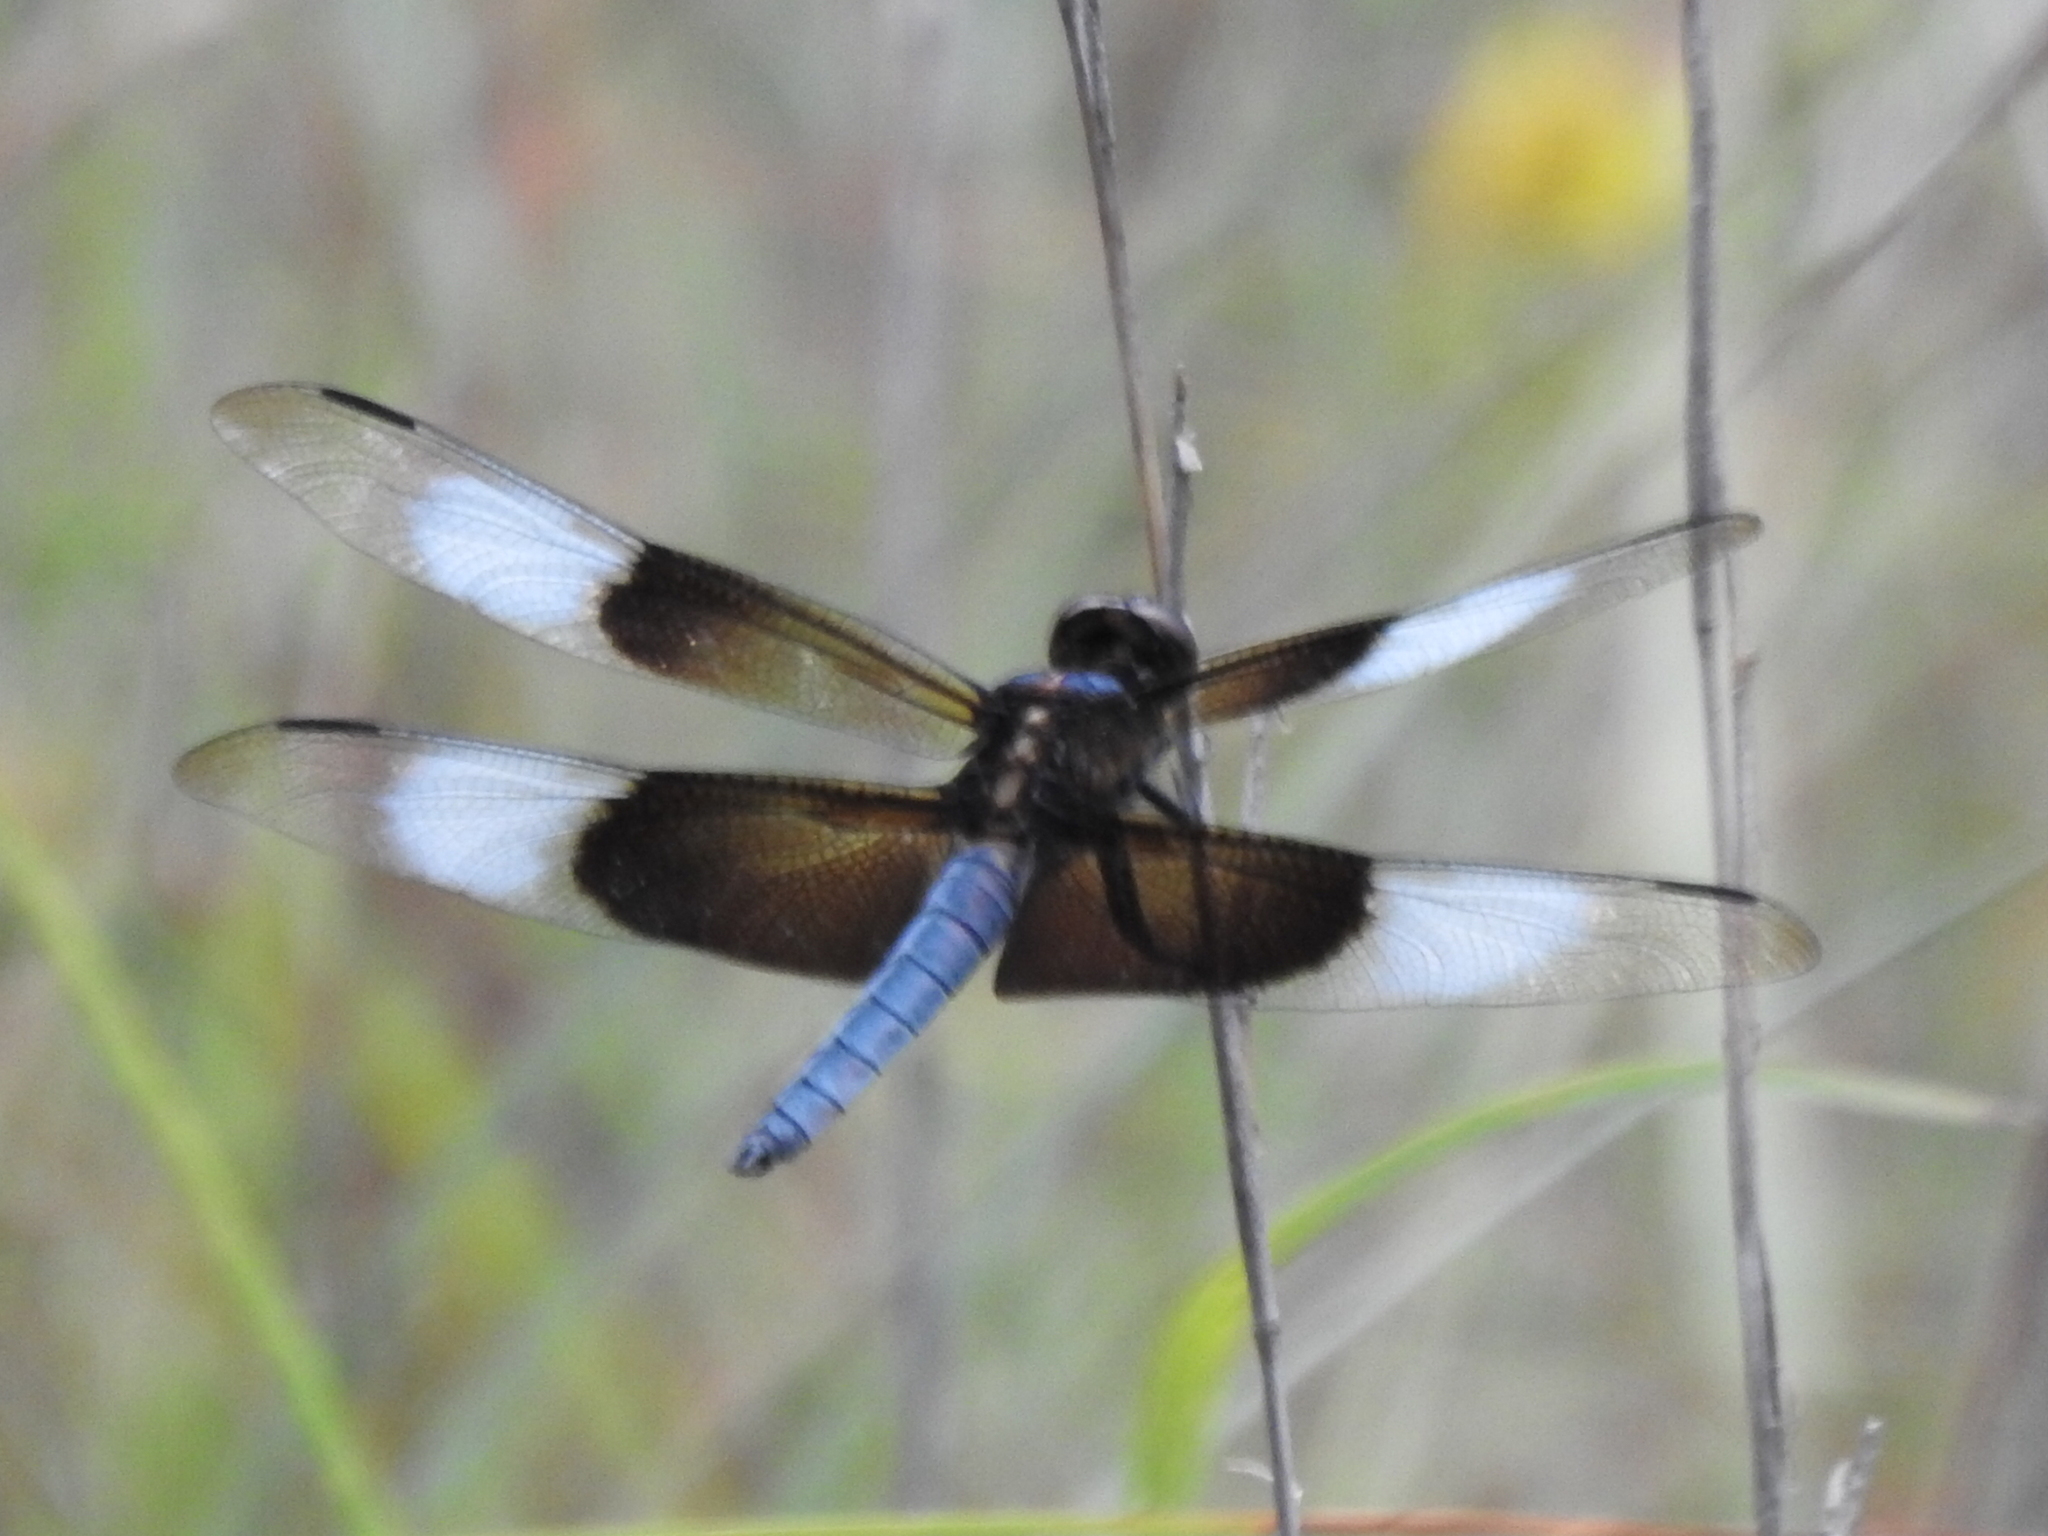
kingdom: Animalia
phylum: Arthropoda
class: Insecta
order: Odonata
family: Libellulidae
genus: Libellula
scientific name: Libellula luctuosa
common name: Widow skimmer
